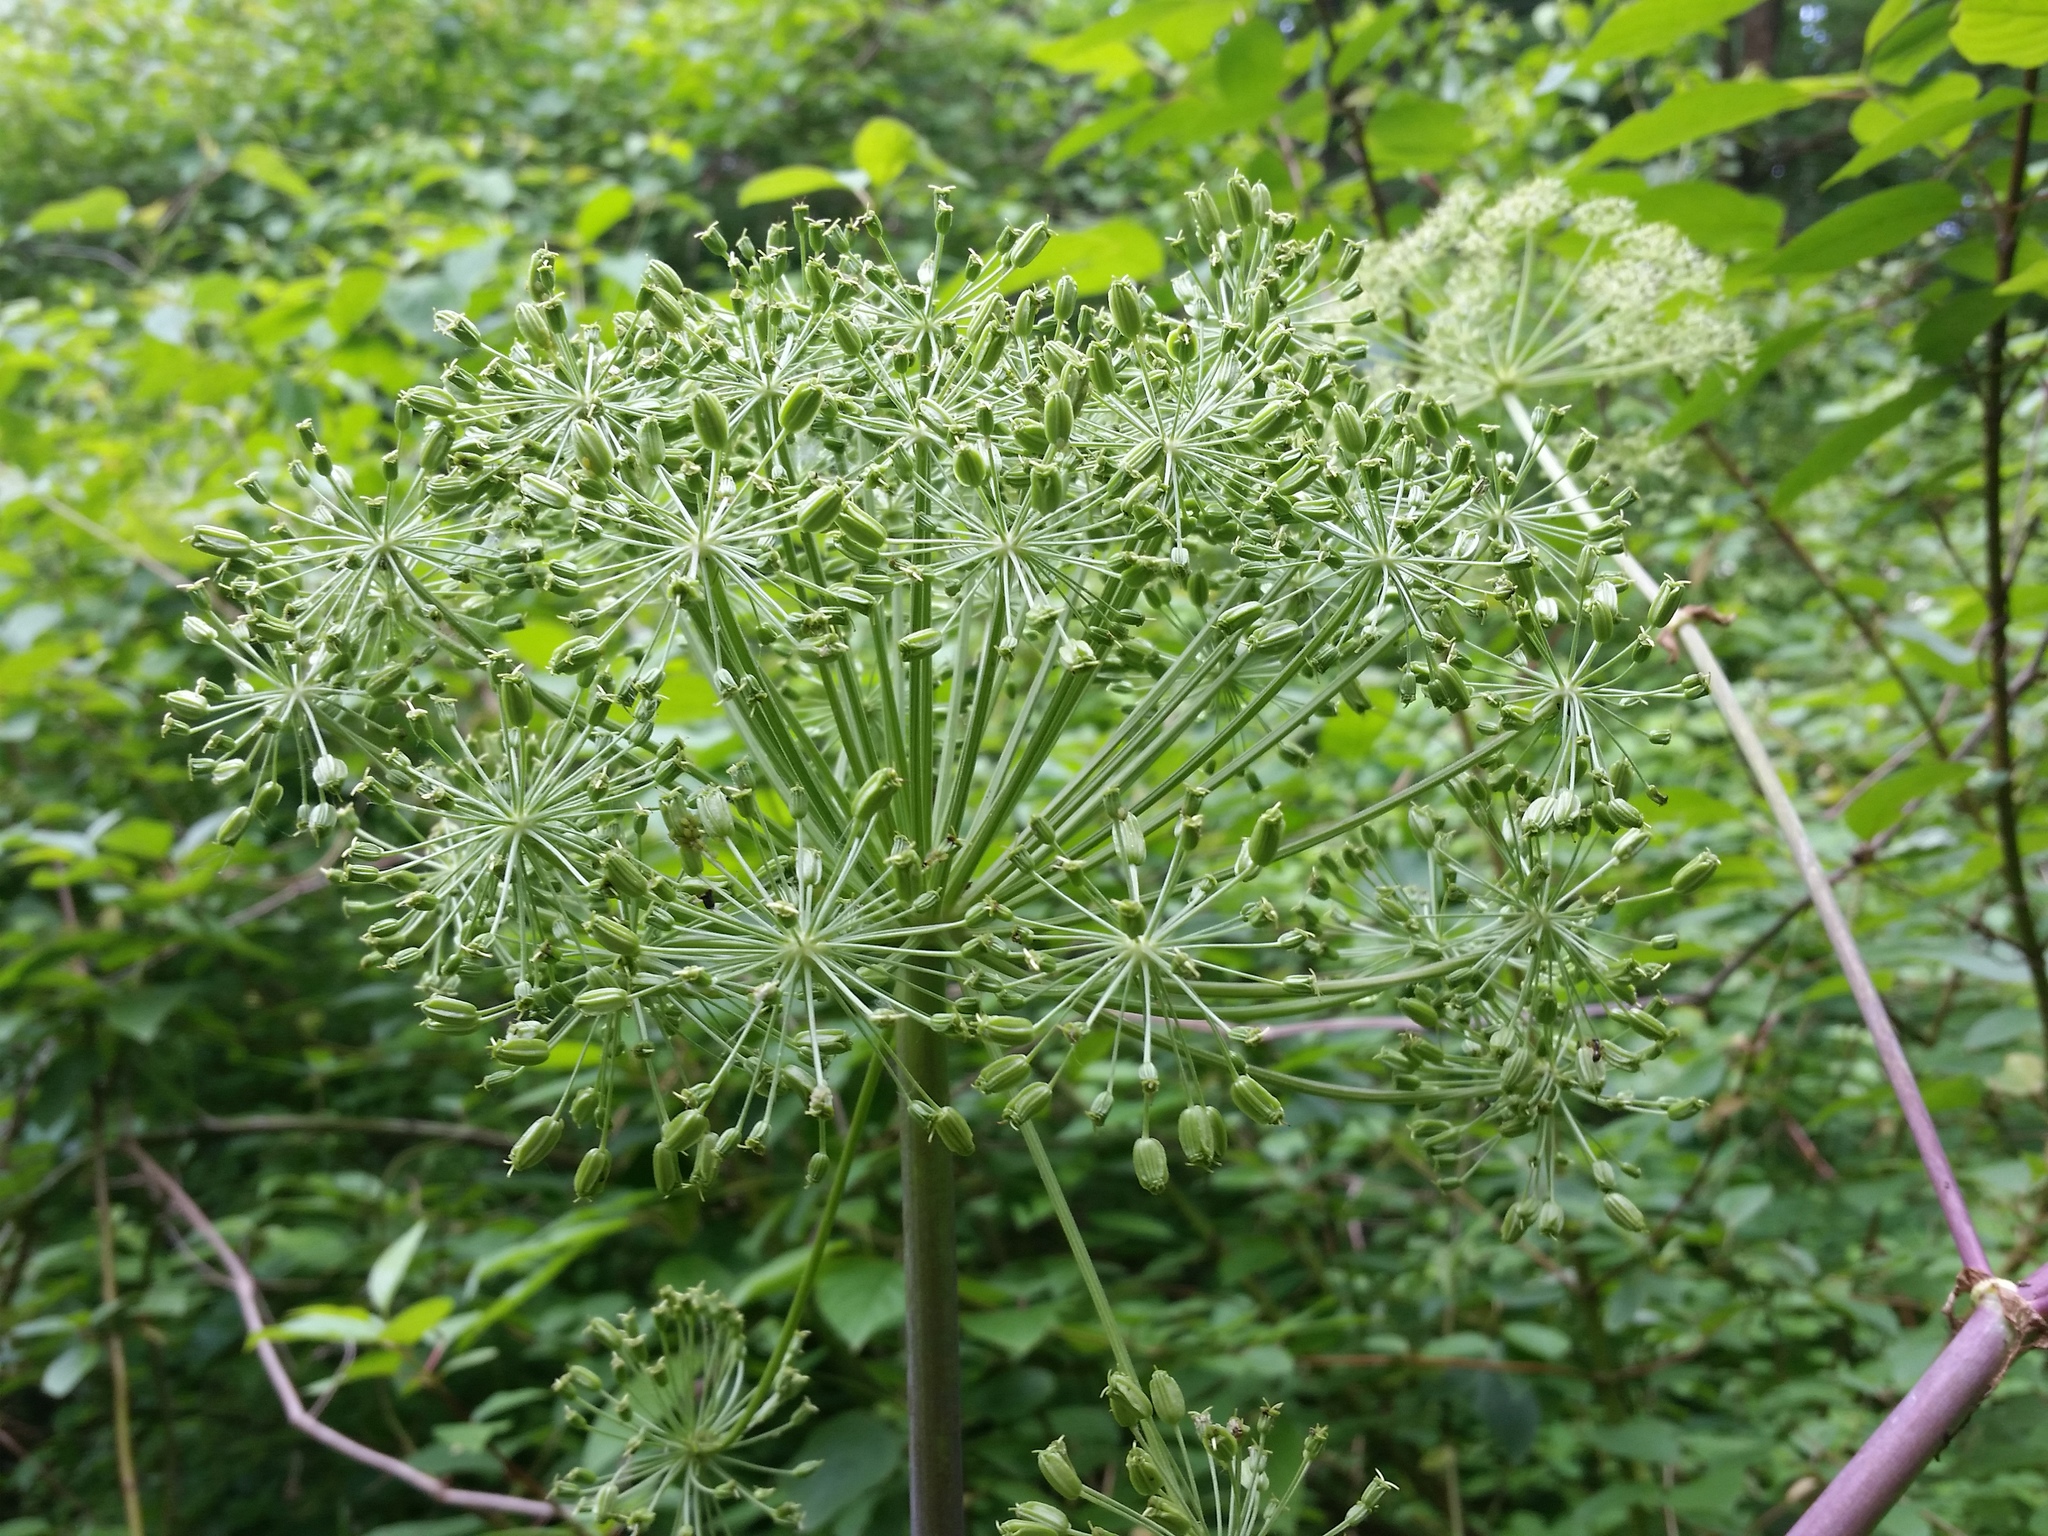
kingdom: Plantae
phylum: Tracheophyta
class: Magnoliopsida
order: Apiales
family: Apiaceae
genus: Angelica
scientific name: Angelica atropurpurea
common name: Great angelica
